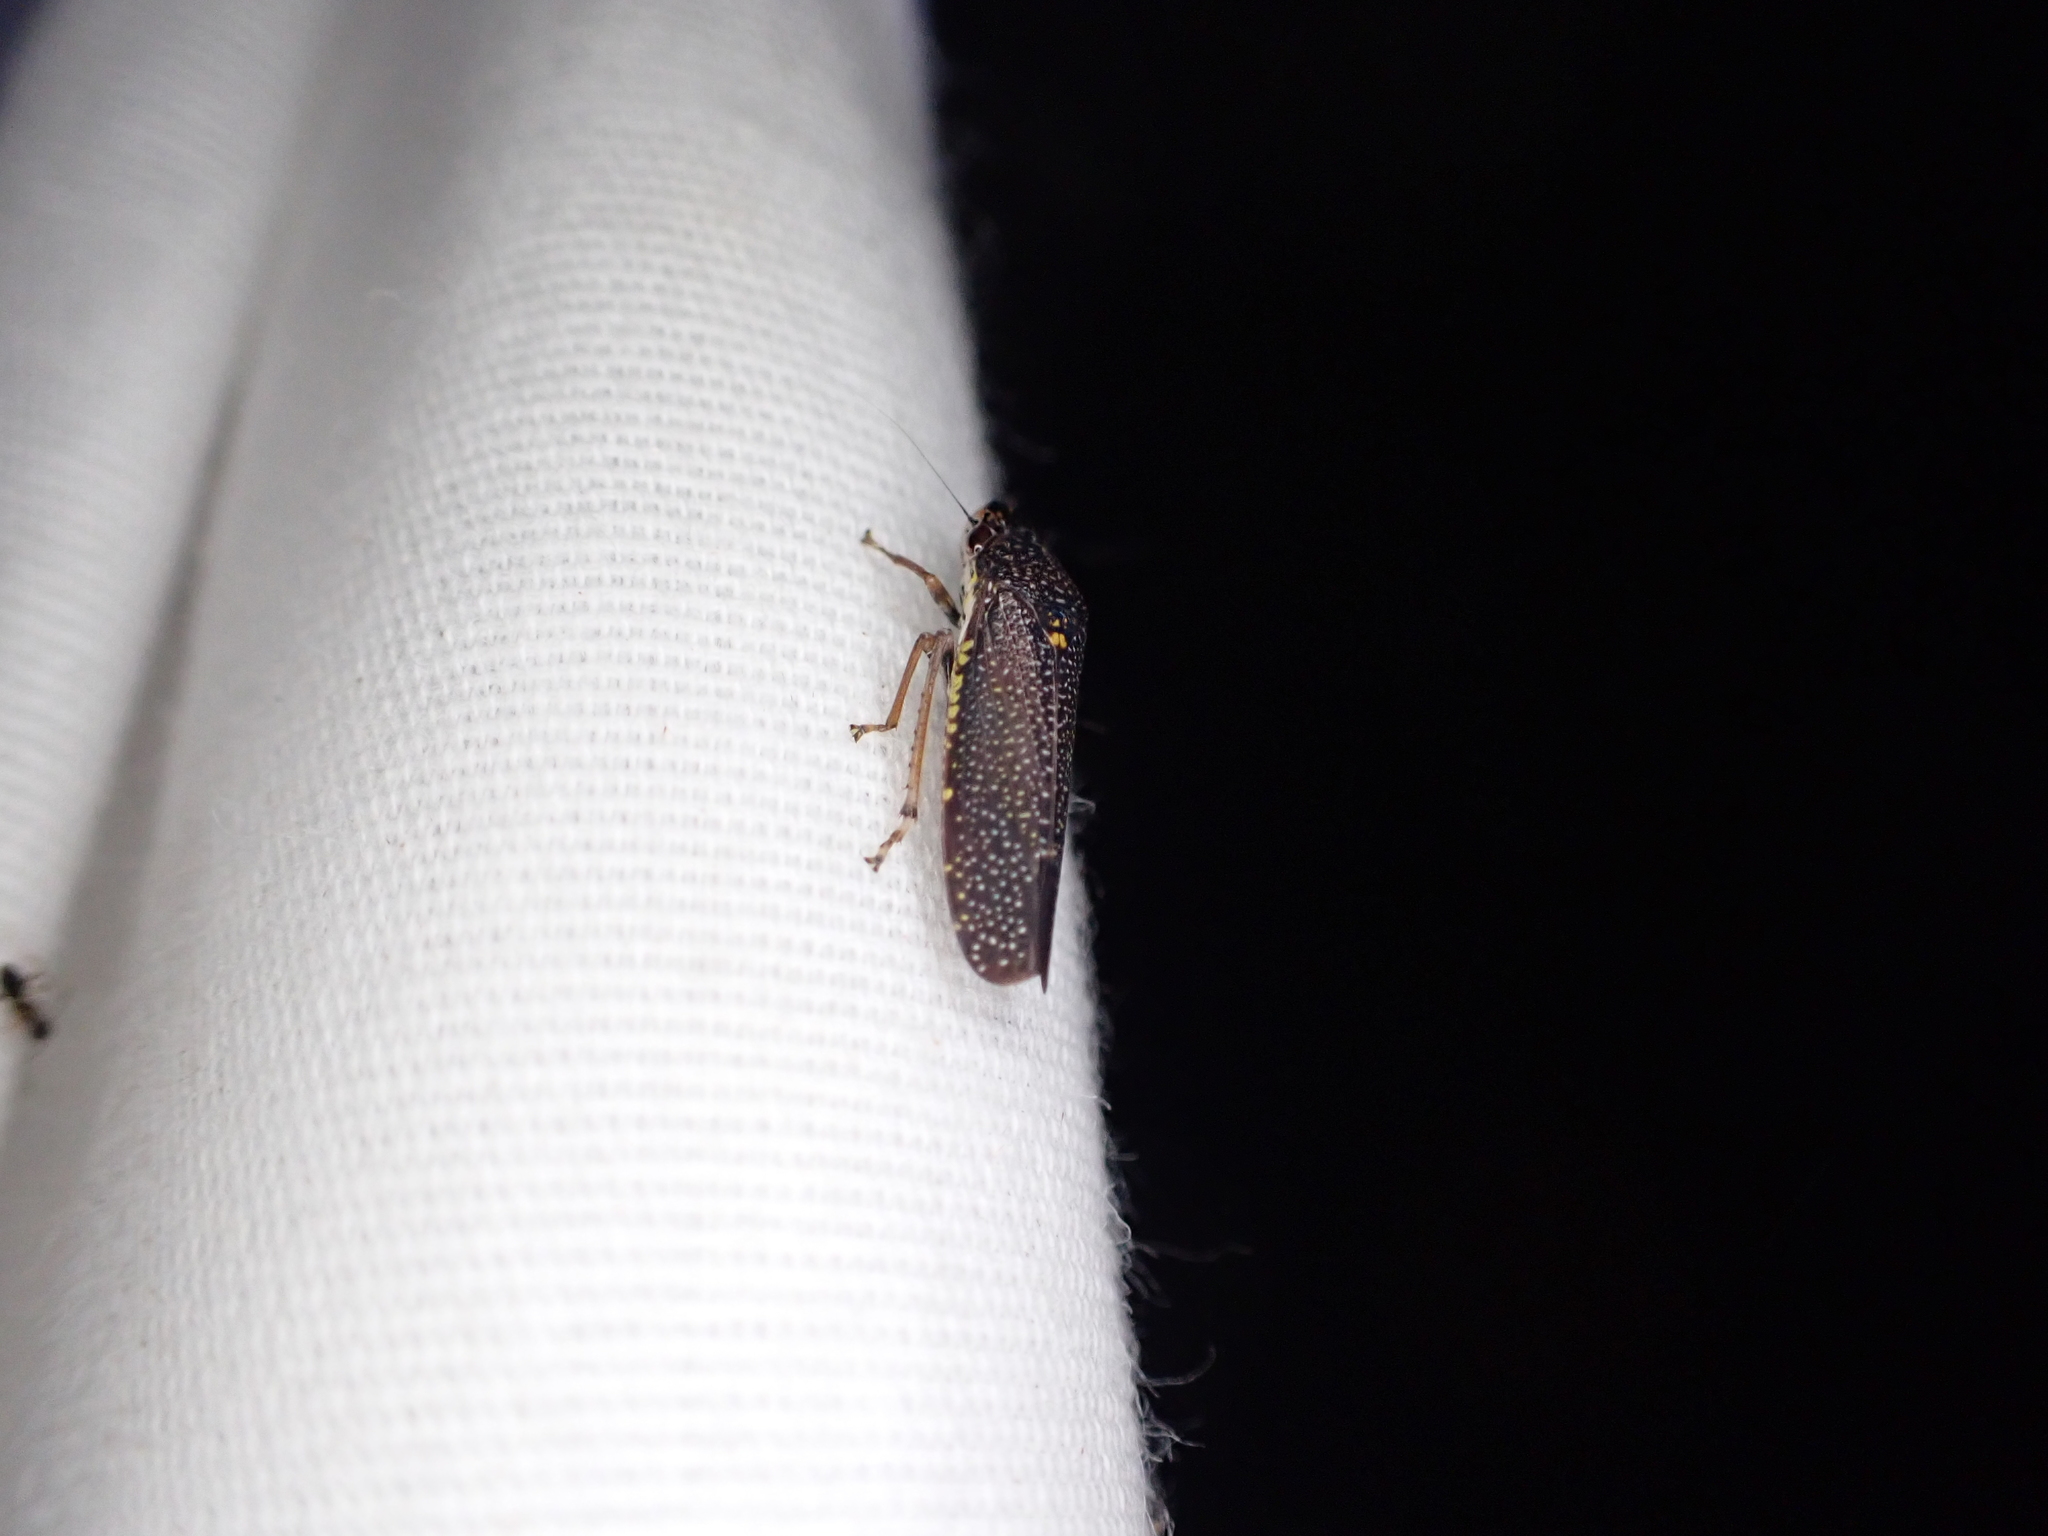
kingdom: Animalia
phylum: Arthropoda
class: Insecta
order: Hemiptera
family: Cicadellidae
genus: Paraulacizes
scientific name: Paraulacizes irrorata
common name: Speckled sharpshooter
